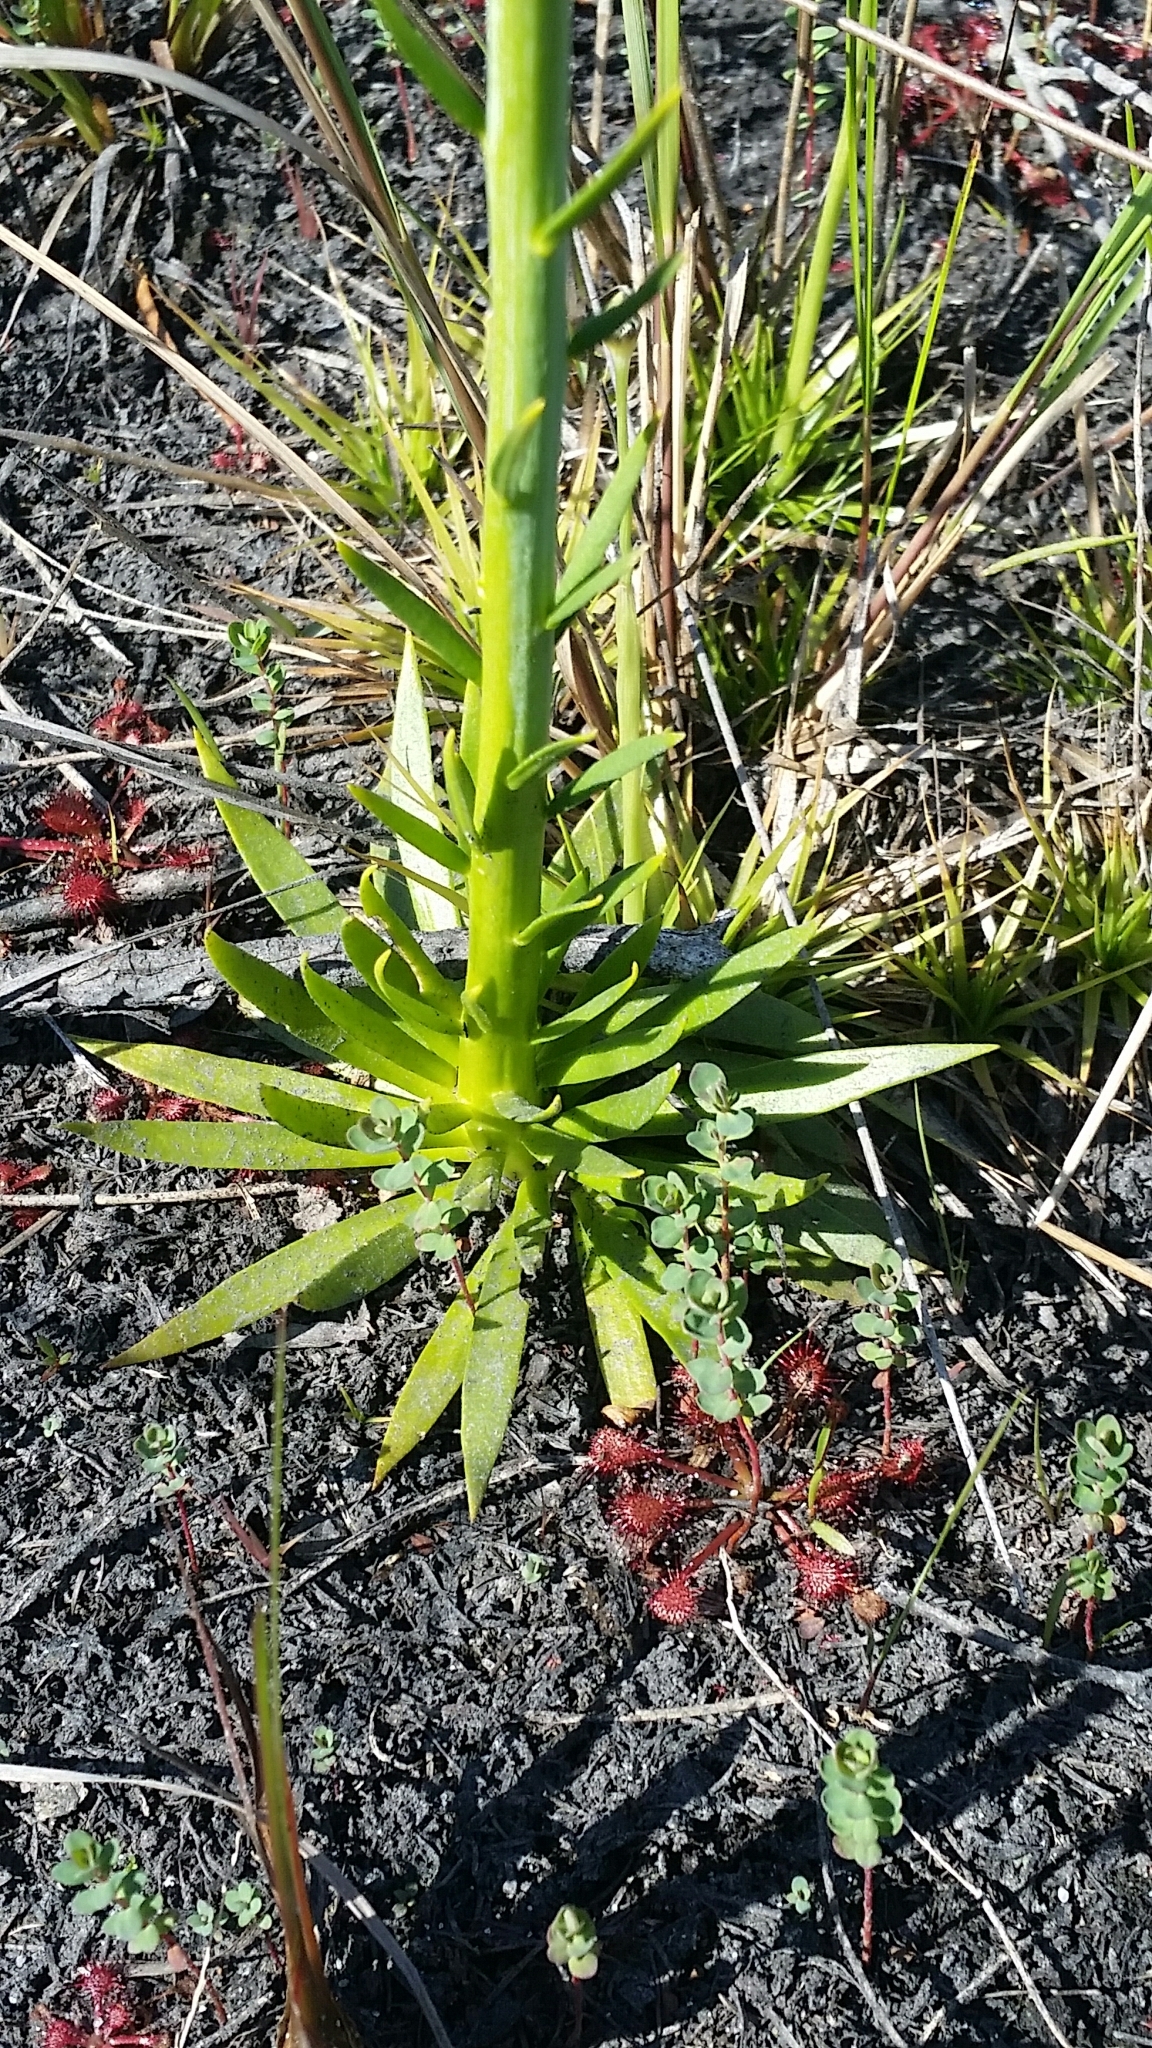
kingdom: Plantae
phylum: Tracheophyta
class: Magnoliopsida
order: Fabales
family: Polygalaceae
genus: Polygala
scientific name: Polygala cymosa
